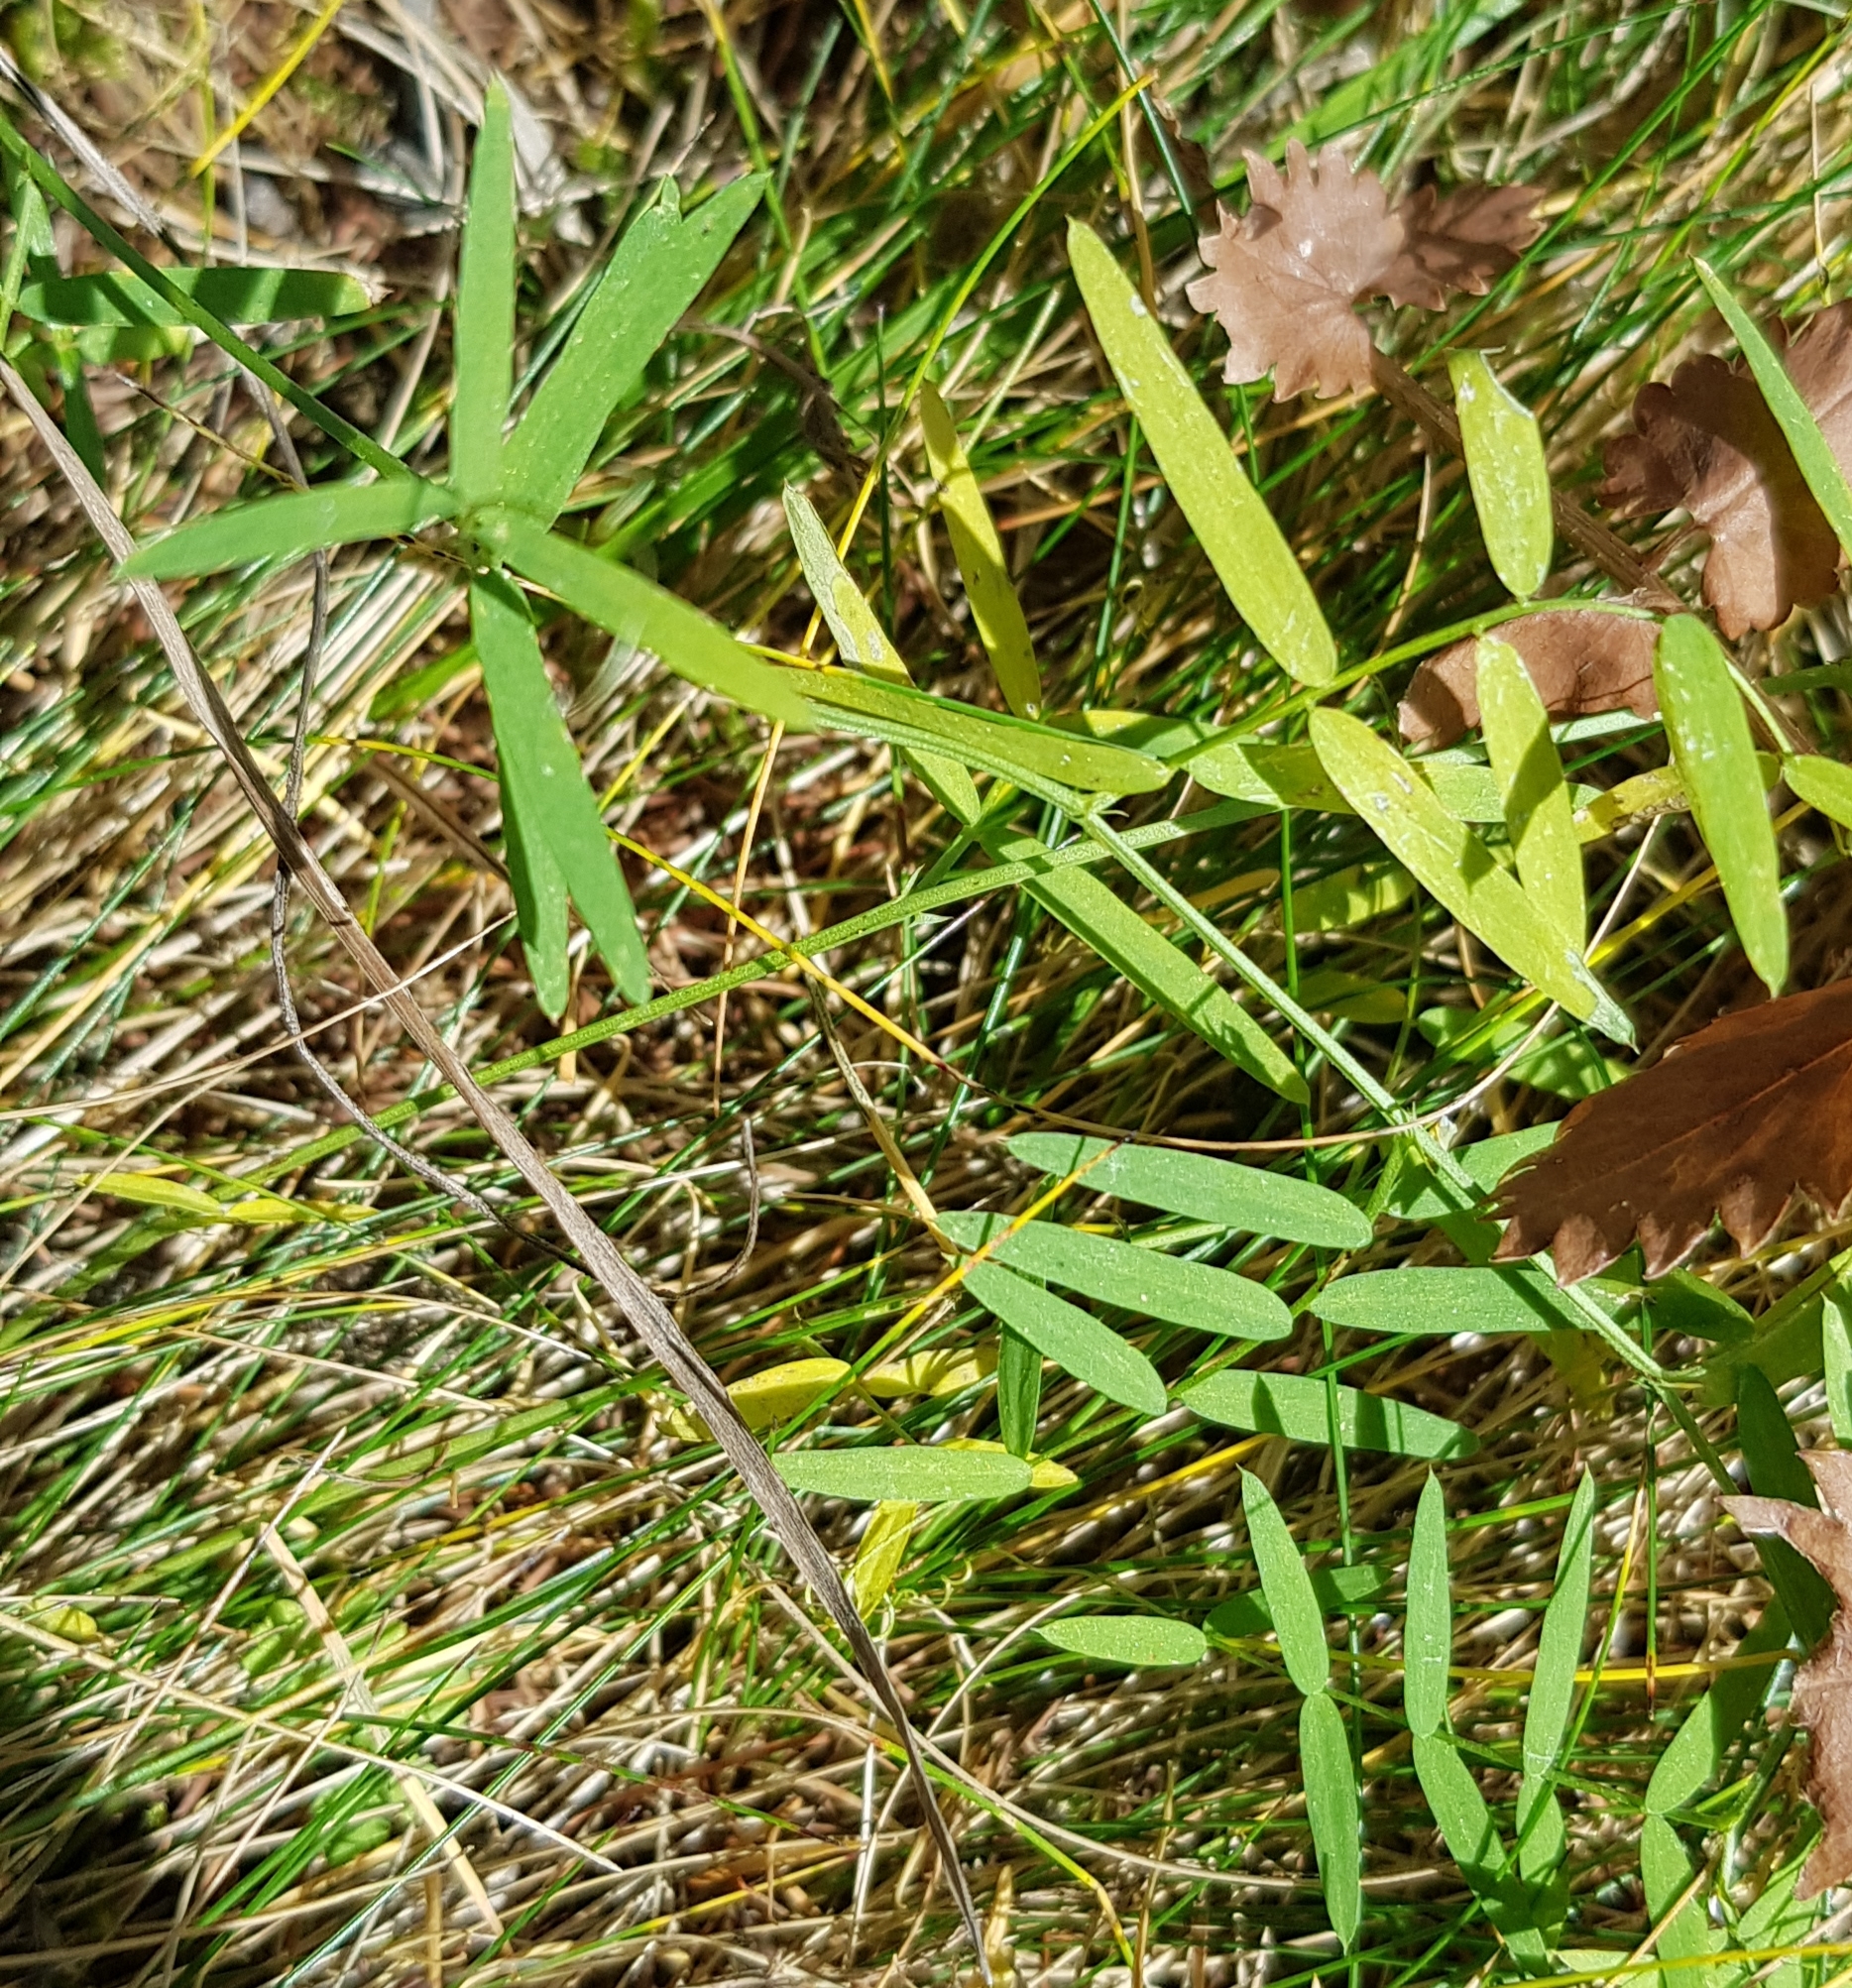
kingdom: Plantae
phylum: Tracheophyta
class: Magnoliopsida
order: Fabales
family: Fabaceae
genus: Lathyrus
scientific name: Lathyrus palustris
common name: Marsh pea
